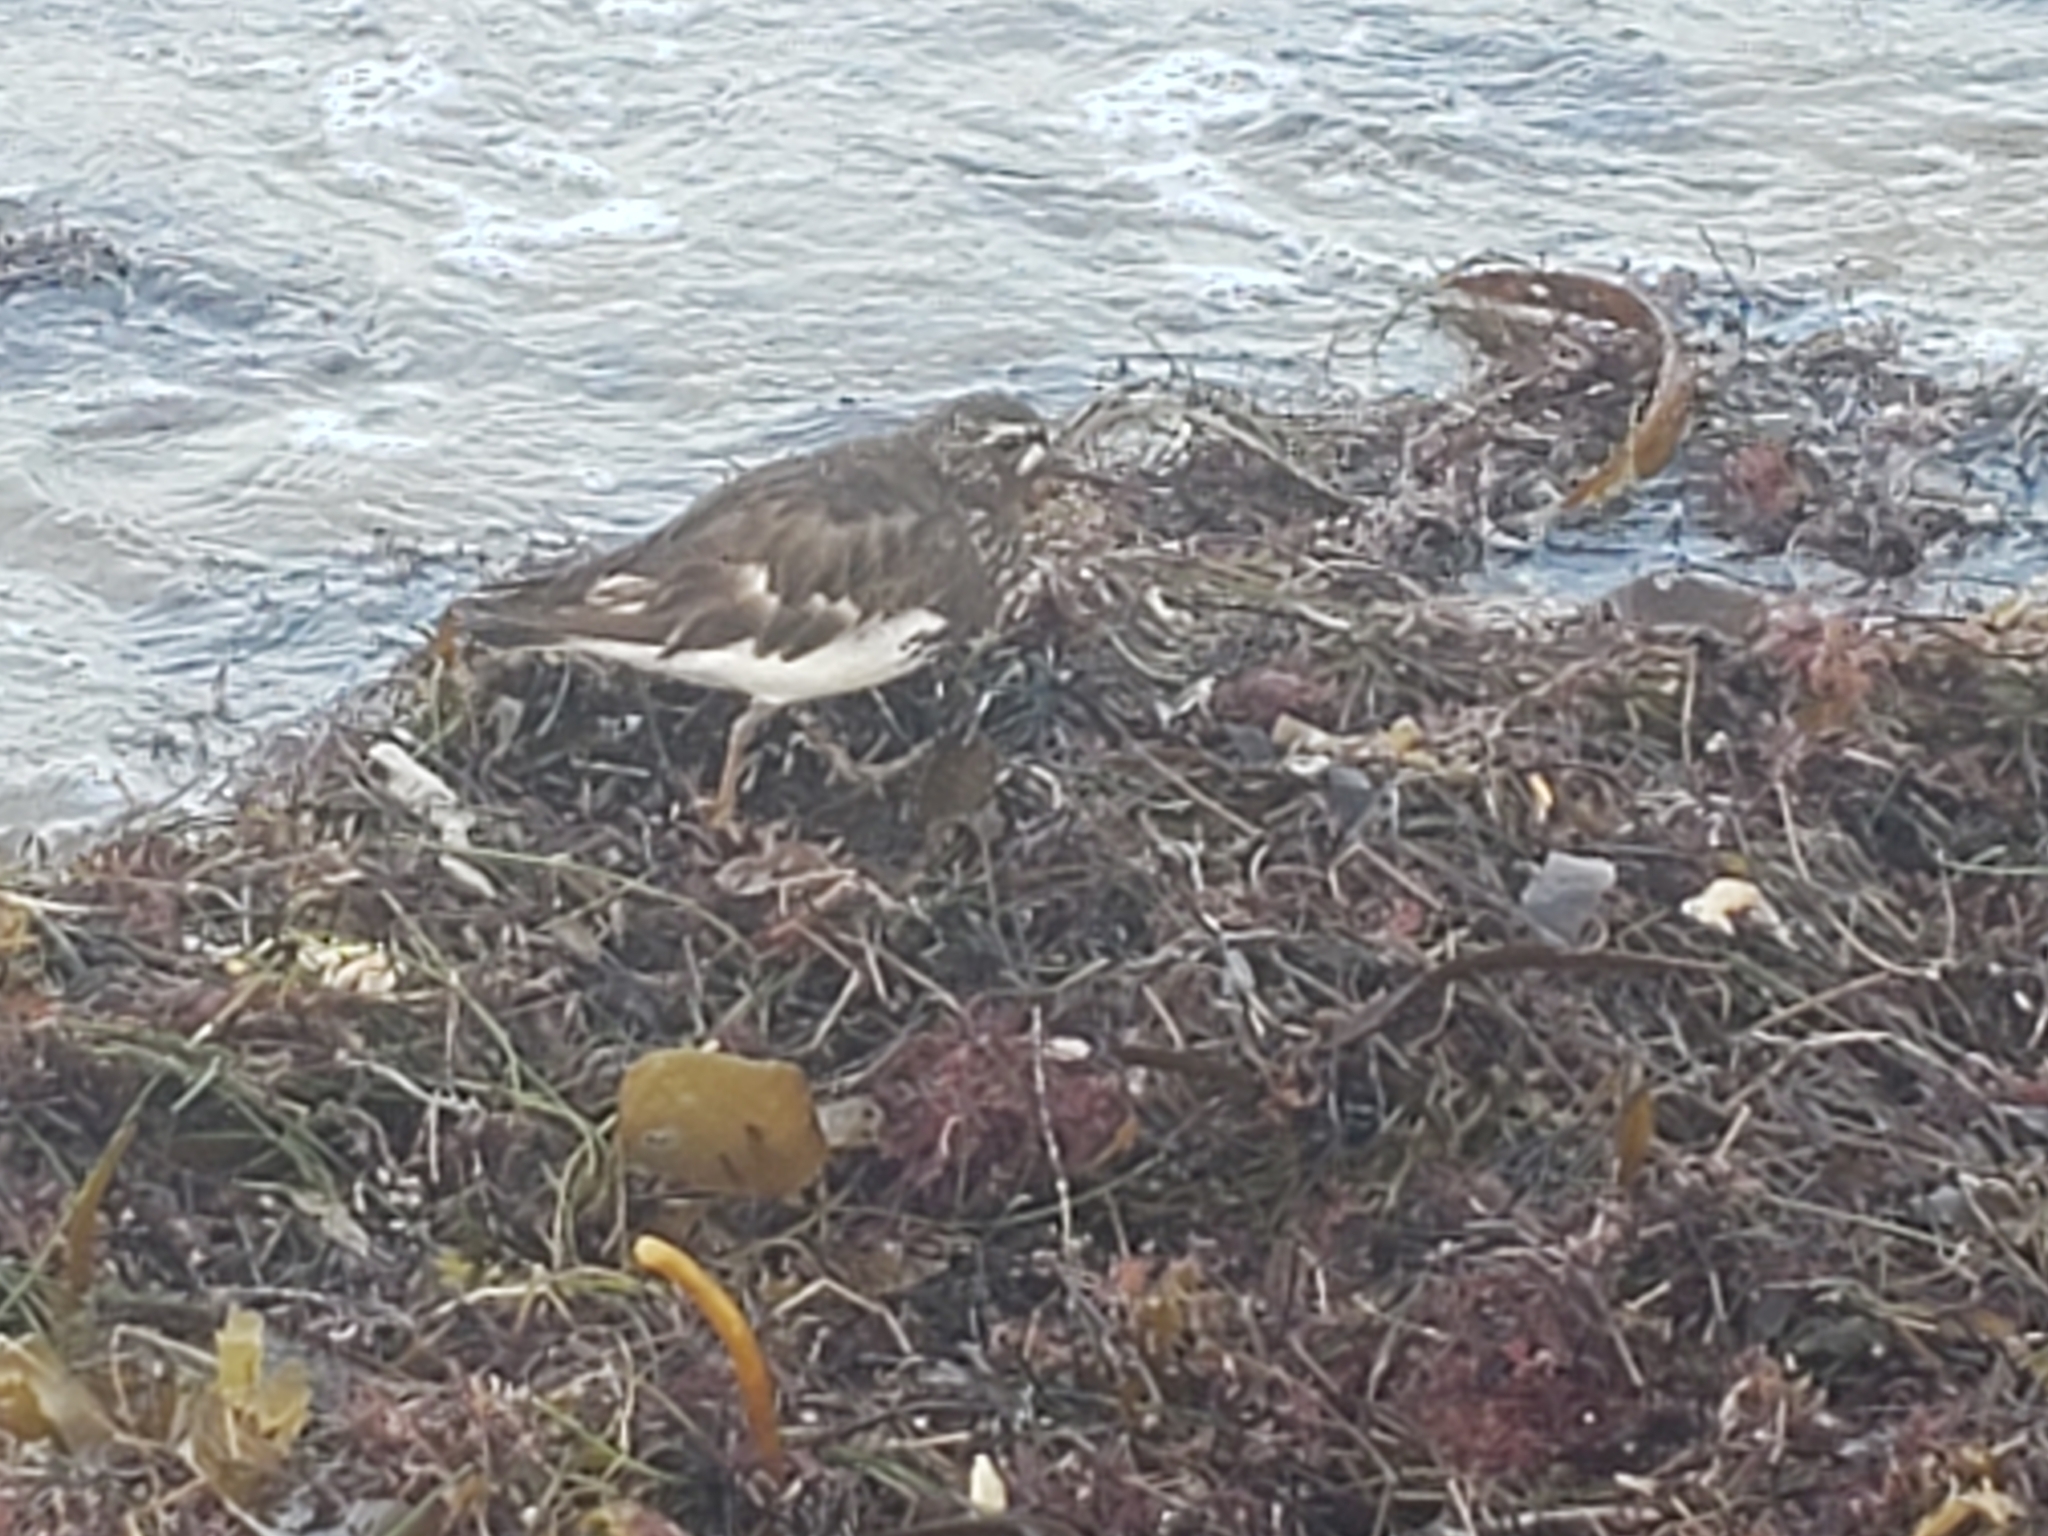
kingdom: Animalia
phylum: Chordata
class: Aves
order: Charadriiformes
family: Scolopacidae
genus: Arenaria
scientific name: Arenaria melanocephala
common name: Black turnstone
